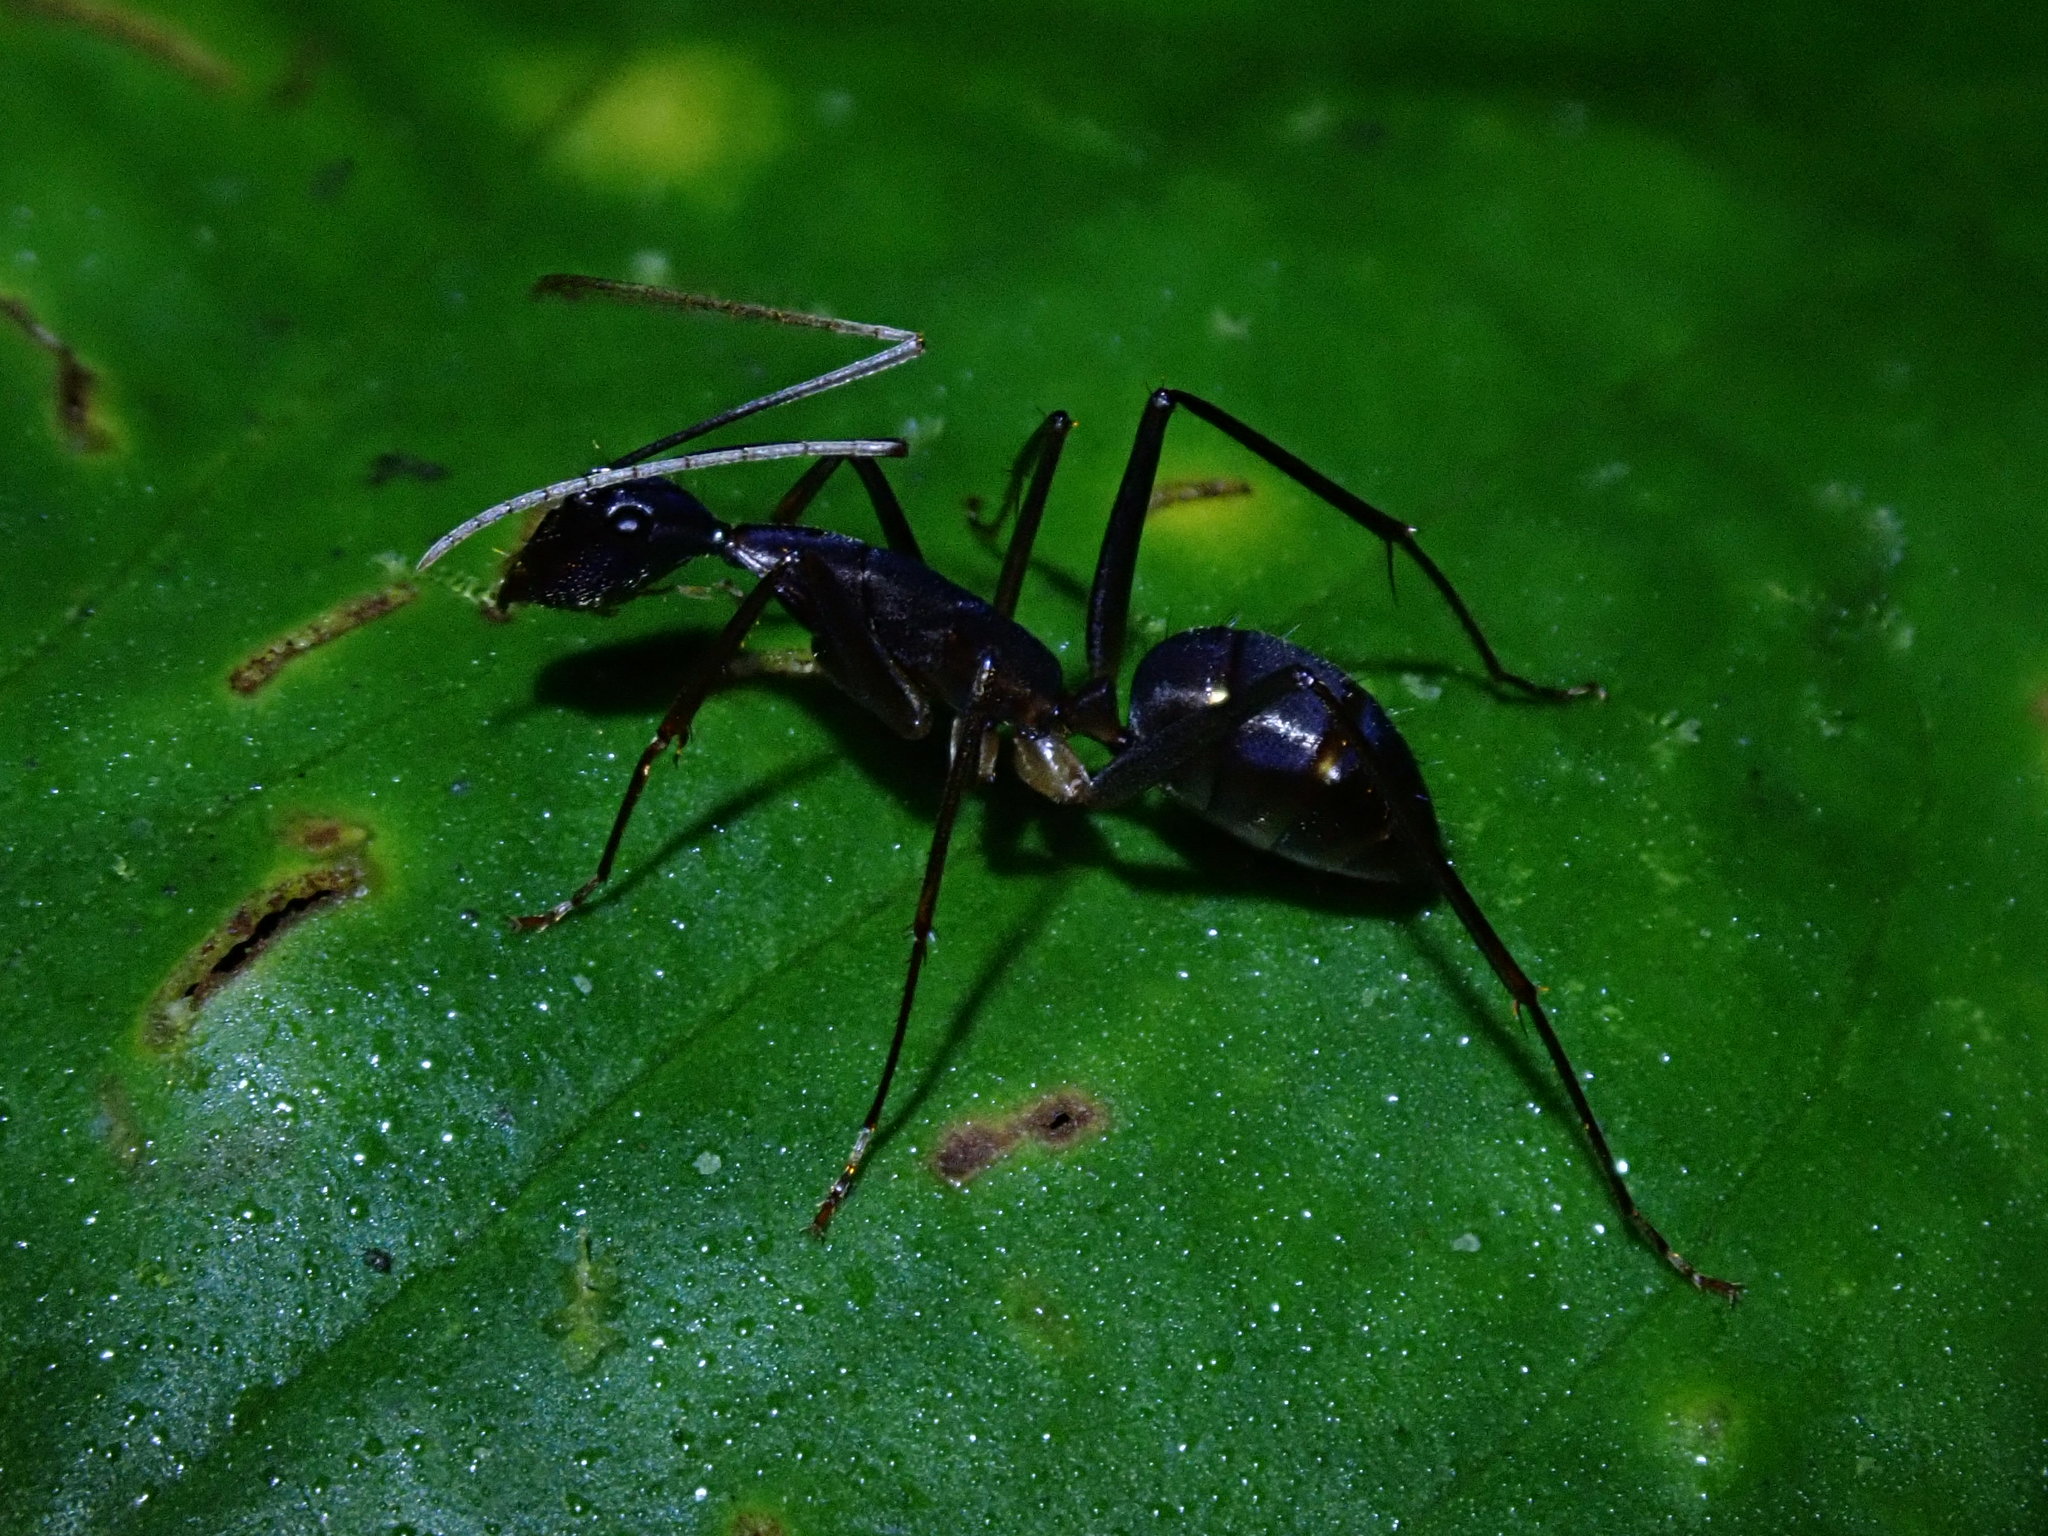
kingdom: Animalia
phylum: Arthropoda
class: Insecta
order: Hymenoptera
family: Formicidae
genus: Camponotus
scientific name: Camponotus cacicus
